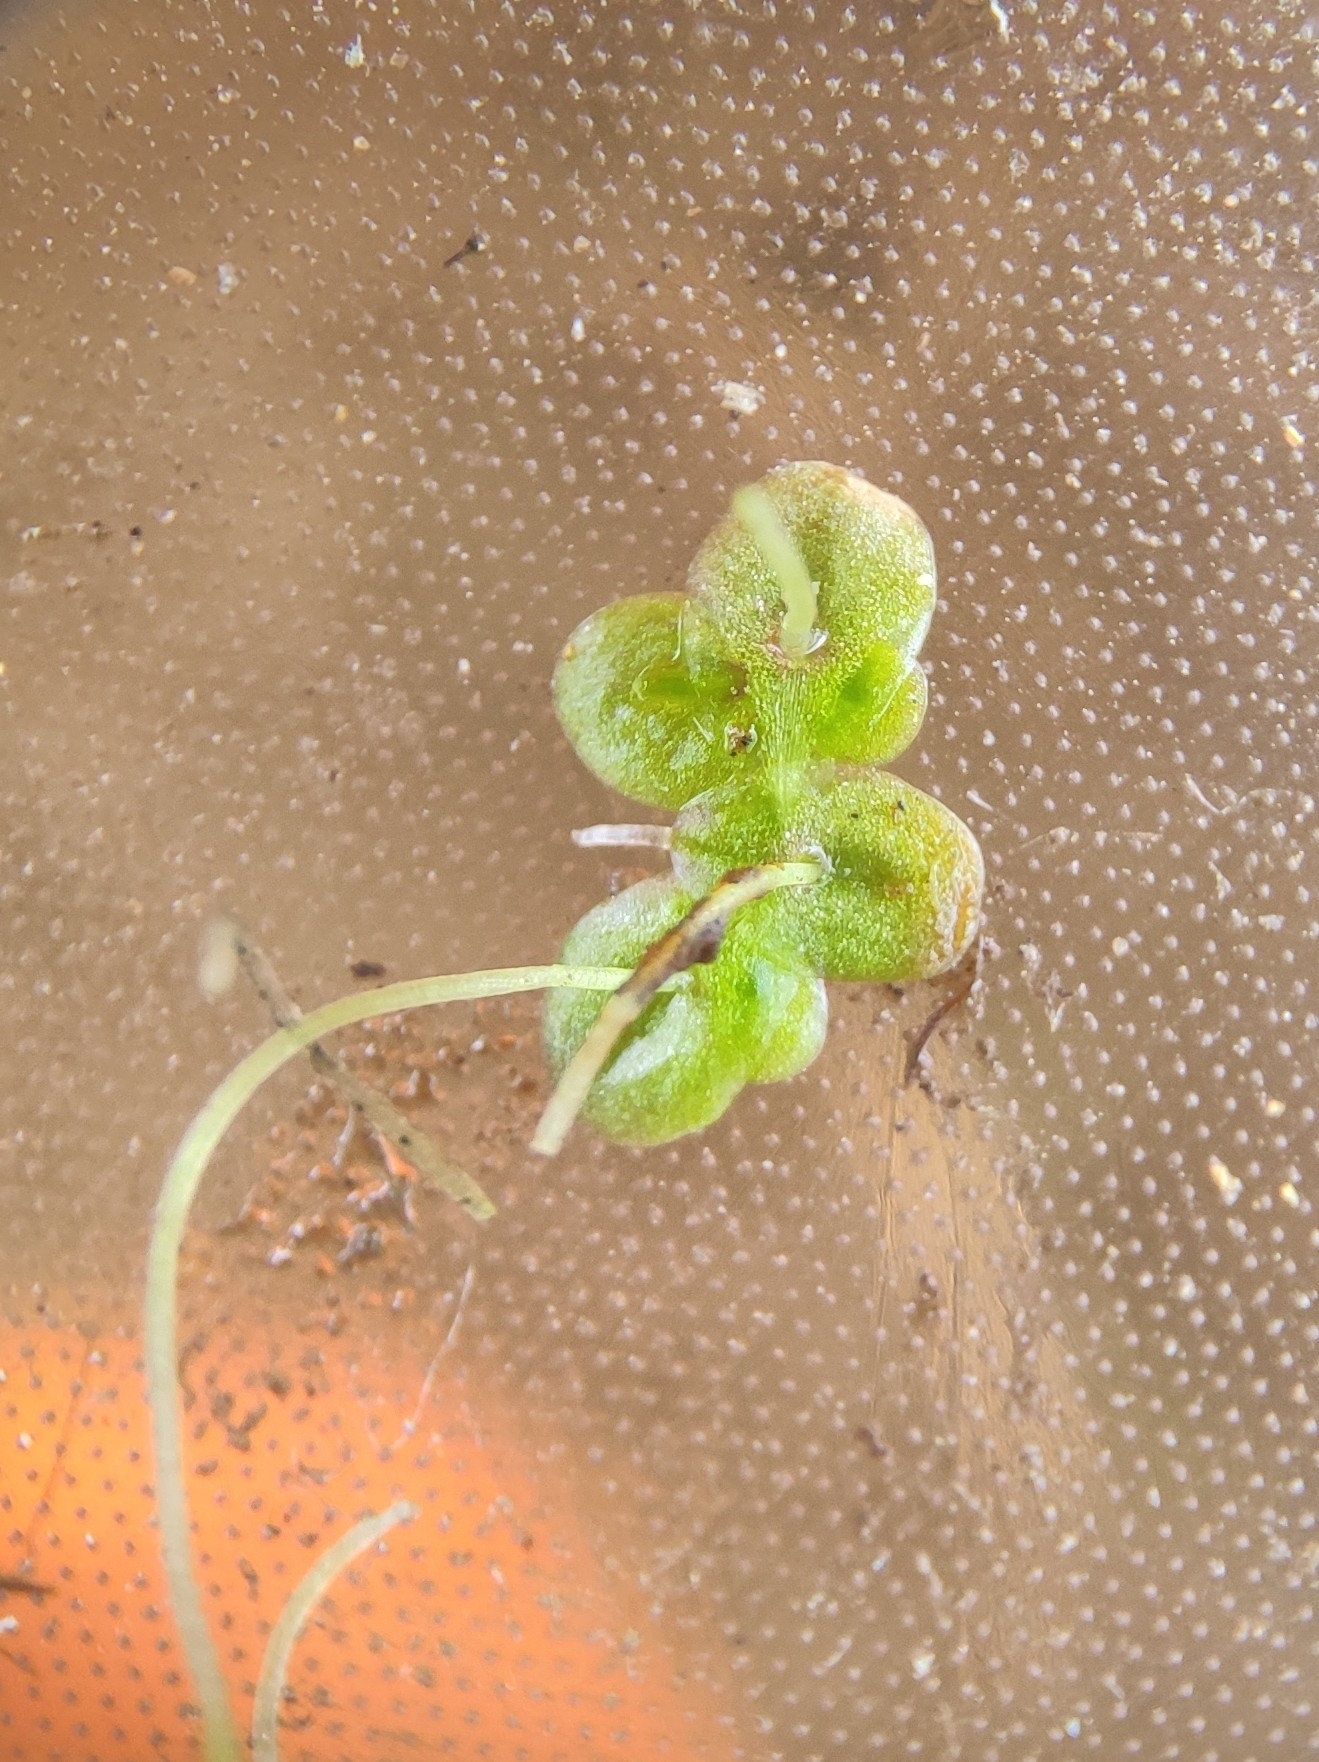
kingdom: Plantae
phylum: Tracheophyta
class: Liliopsida
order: Alismatales
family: Araceae
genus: Lemna
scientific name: Lemna turionifera
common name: Perennial duckweed
